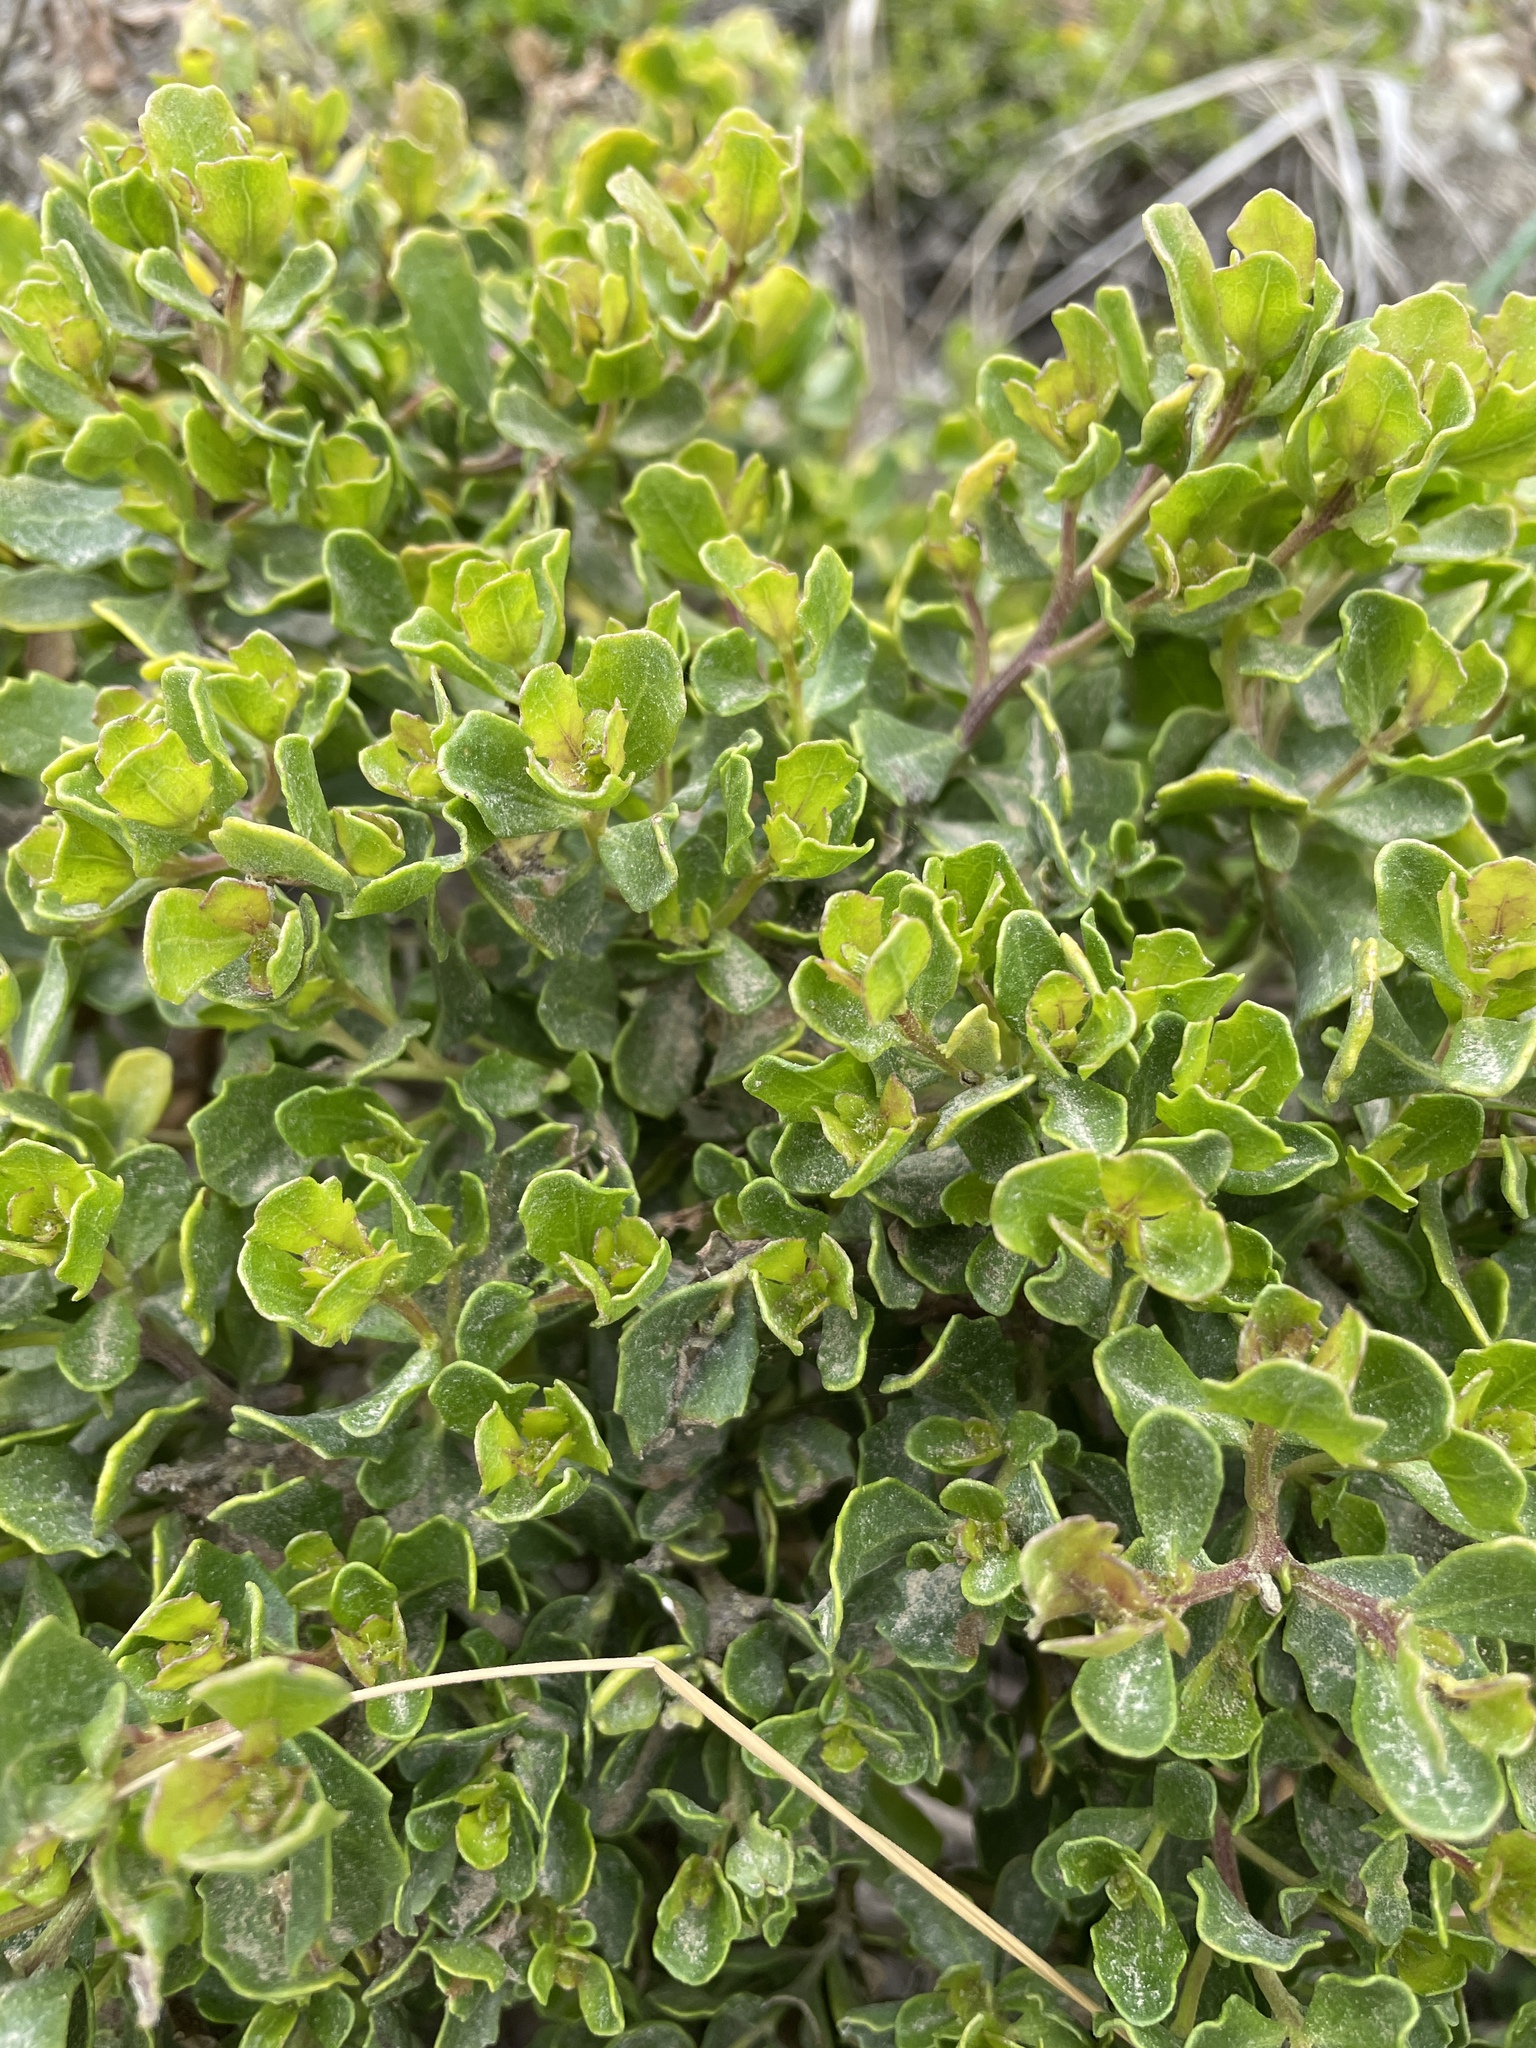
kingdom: Plantae
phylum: Tracheophyta
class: Magnoliopsida
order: Asterales
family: Asteraceae
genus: Baccharis
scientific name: Baccharis pilularis
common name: Coyotebrush
